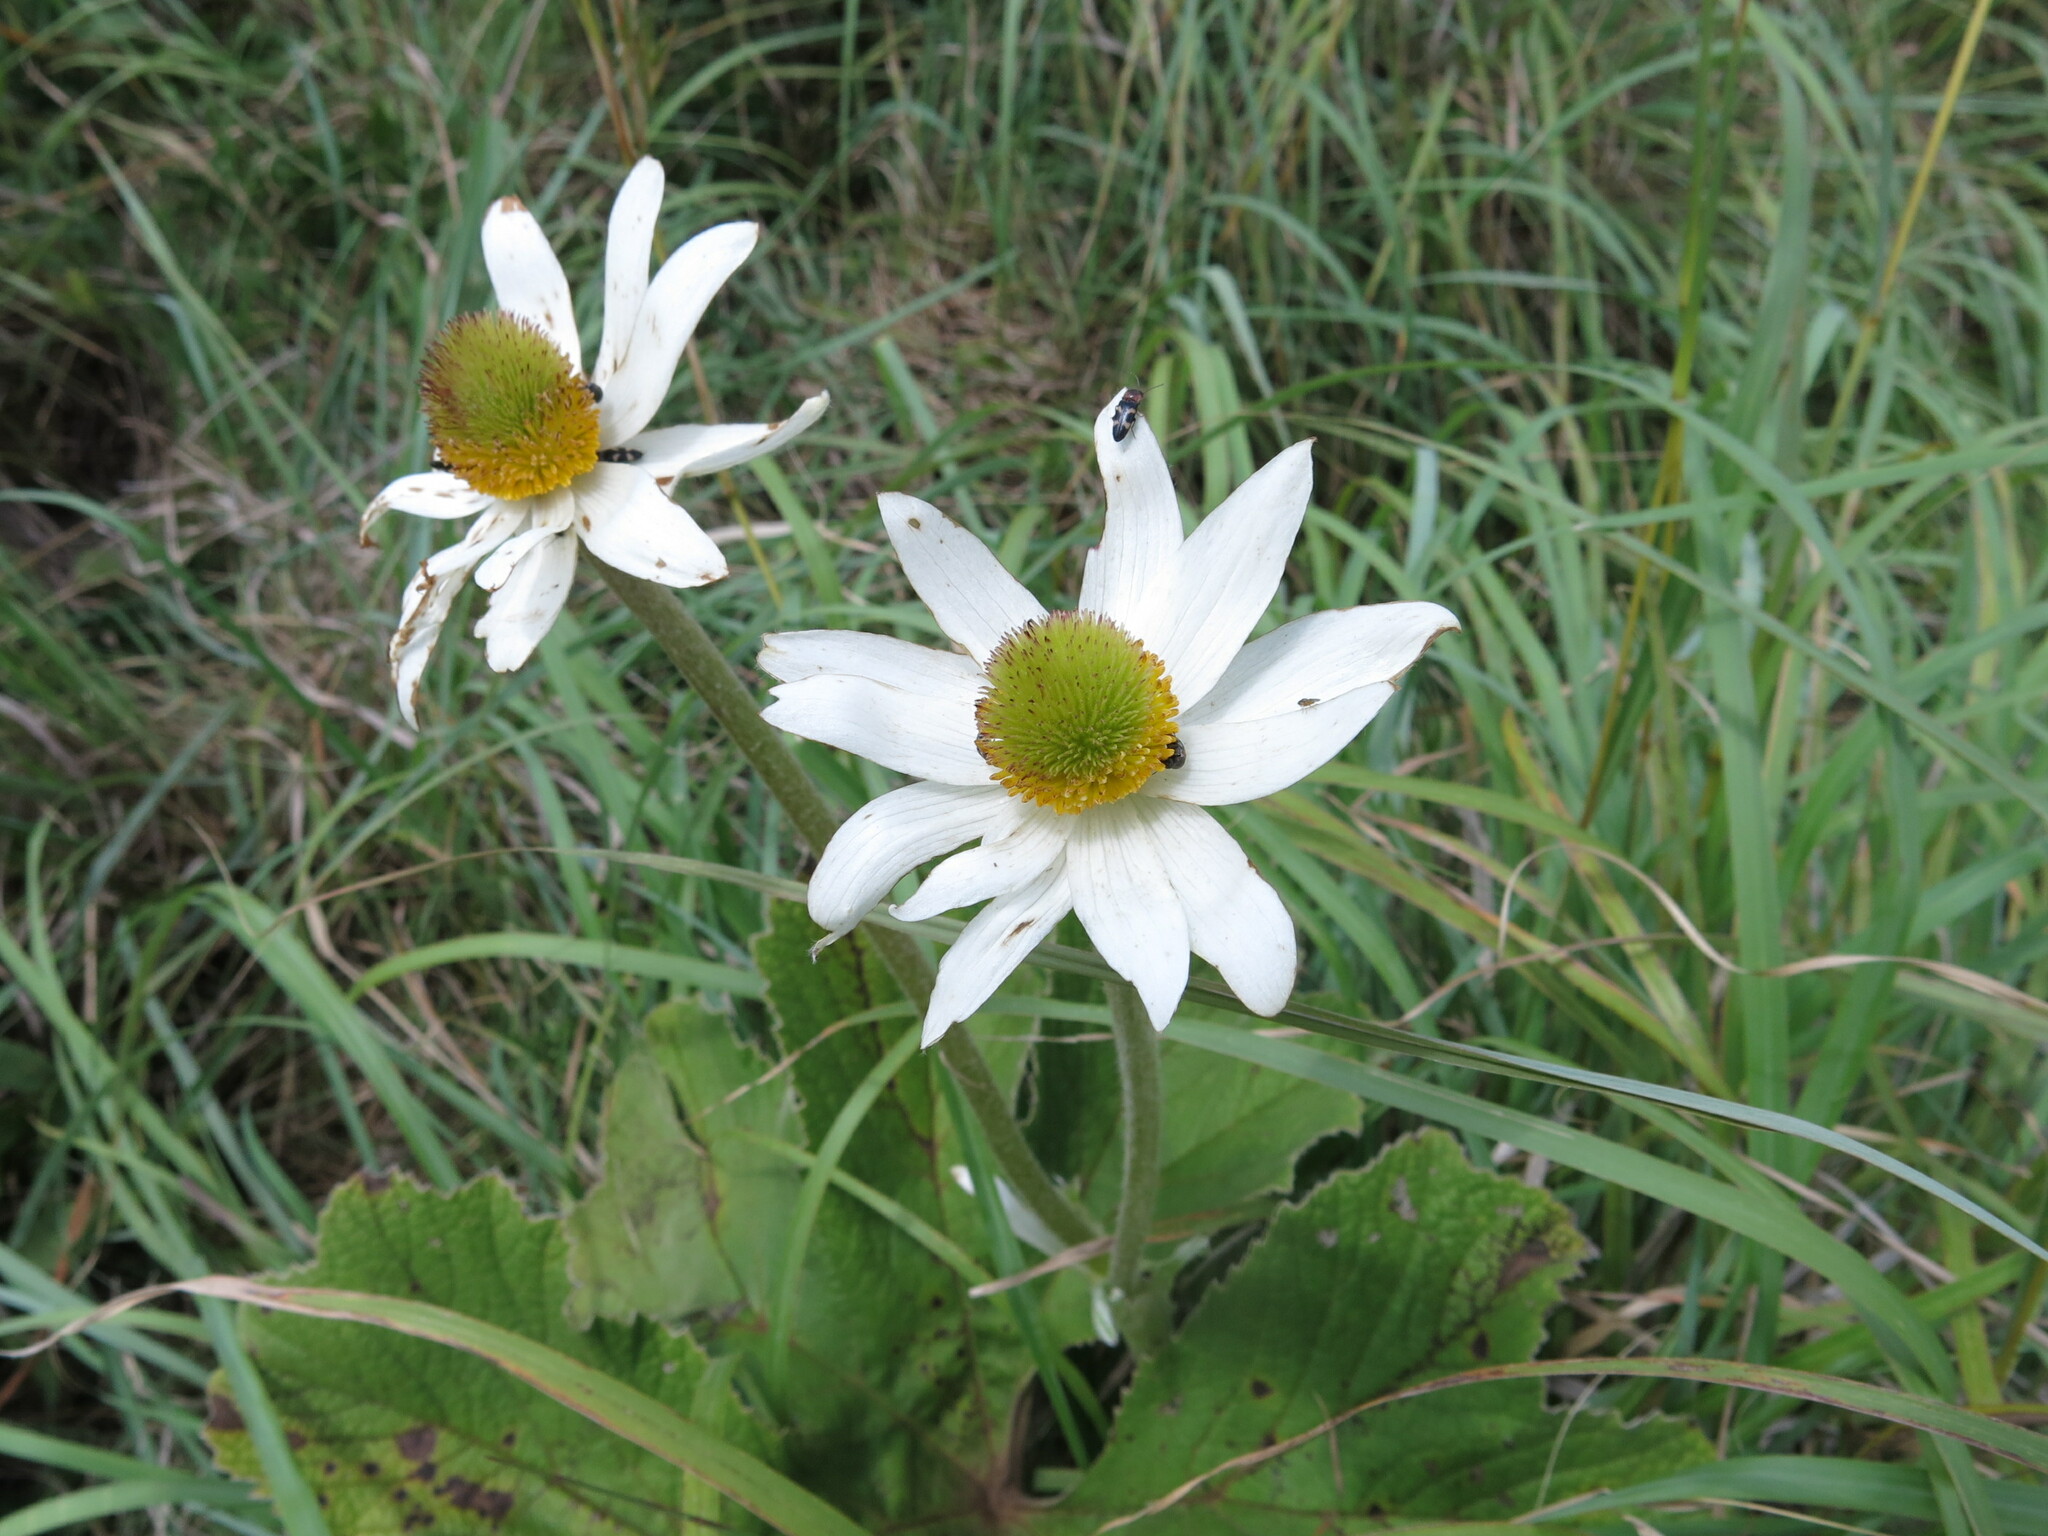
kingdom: Plantae
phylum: Tracheophyta
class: Magnoliopsida
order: Ranunculales
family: Ranunculaceae
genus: Knowltonia
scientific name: Knowltonia fanninii
